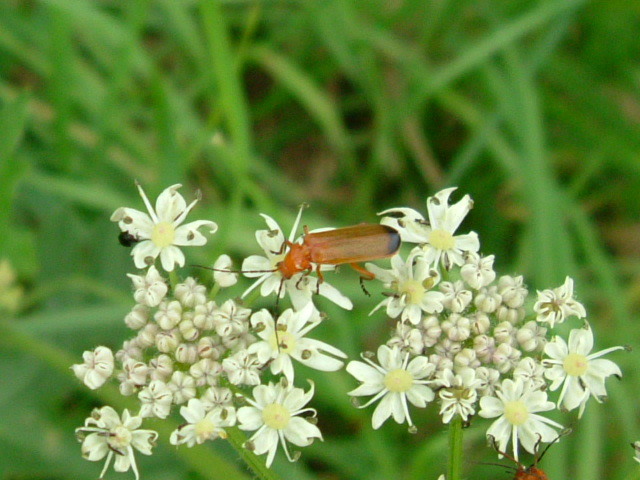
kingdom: Animalia
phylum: Arthropoda
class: Insecta
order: Coleoptera
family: Cantharidae
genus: Rhagonycha
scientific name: Rhagonycha fulva
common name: Common red soldier beetle
